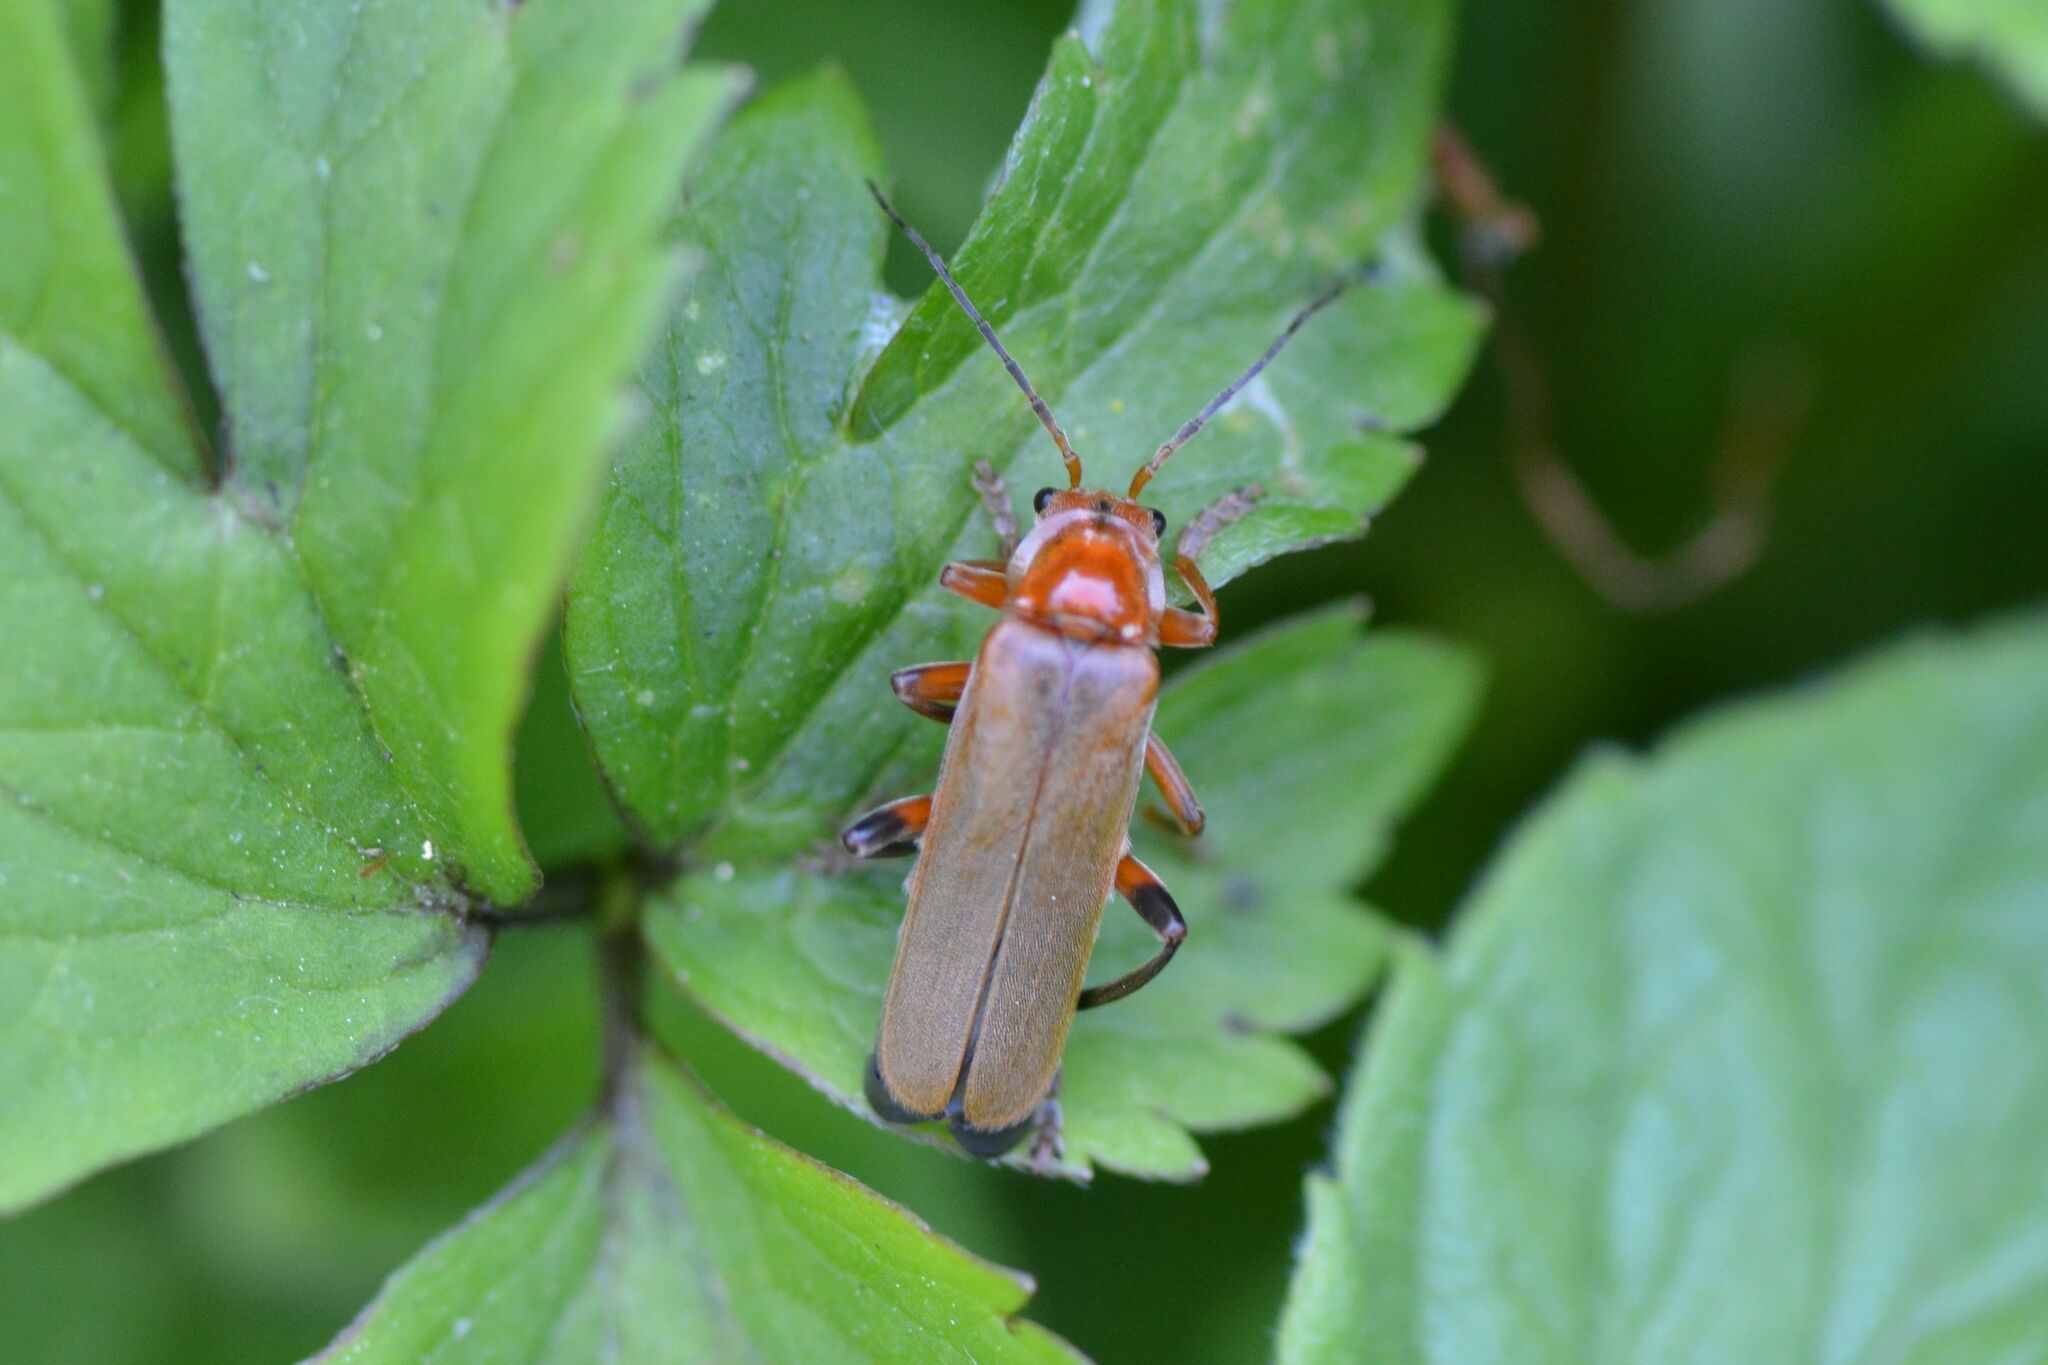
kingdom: Animalia
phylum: Arthropoda
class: Insecta
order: Coleoptera
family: Cantharidae
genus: Cantharis
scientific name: Cantharis livida
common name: Livid soldier beetle
